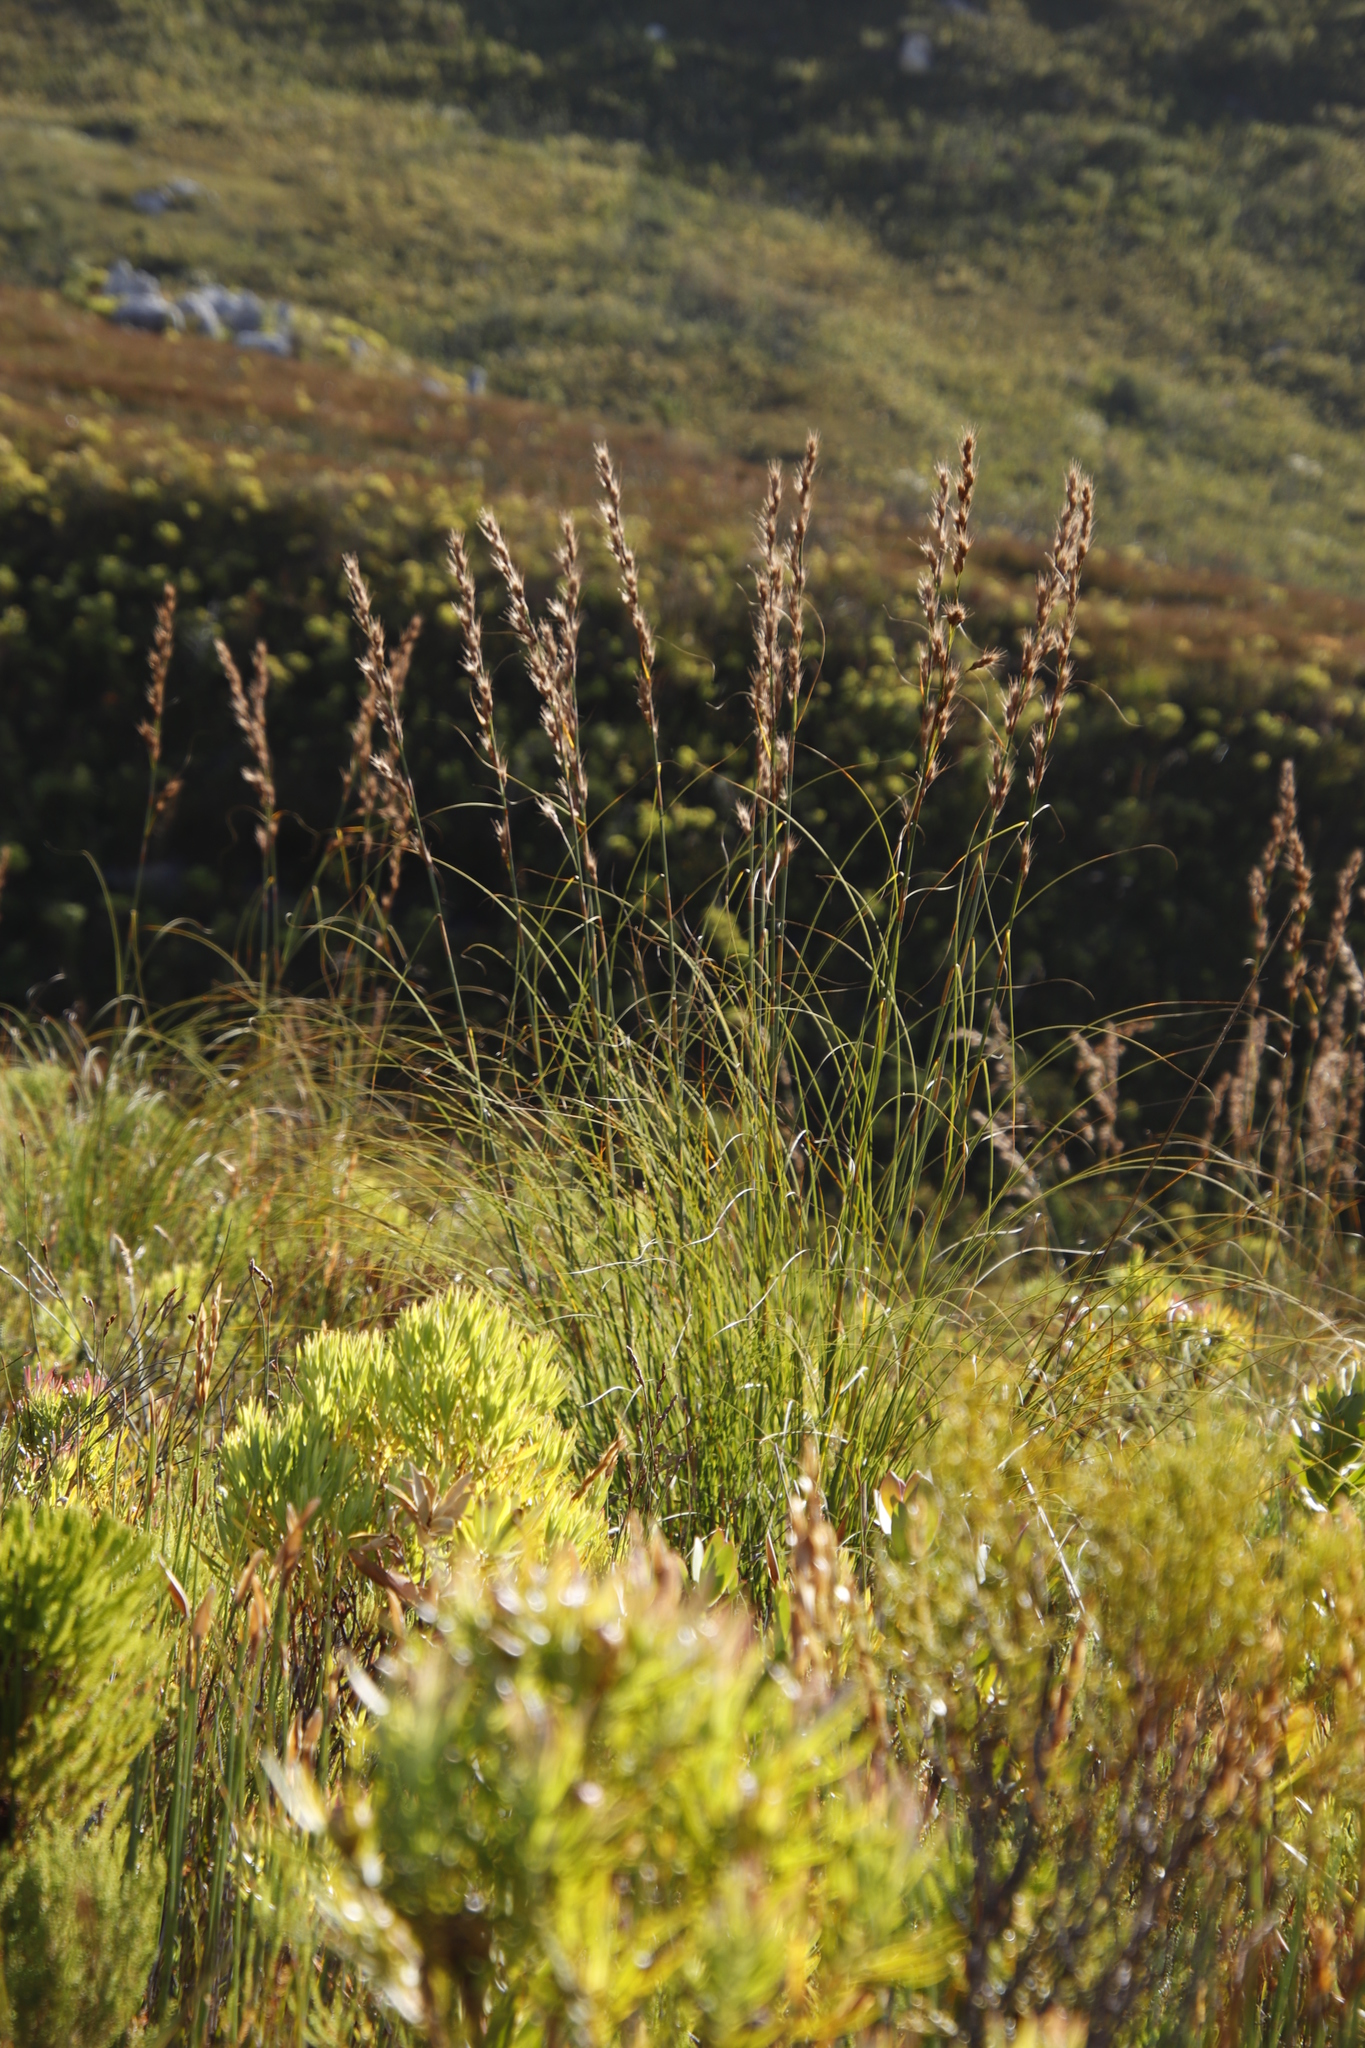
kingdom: Plantae
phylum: Tracheophyta
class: Liliopsida
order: Poales
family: Cyperaceae
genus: Tetraria
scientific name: Tetraria bromoides
